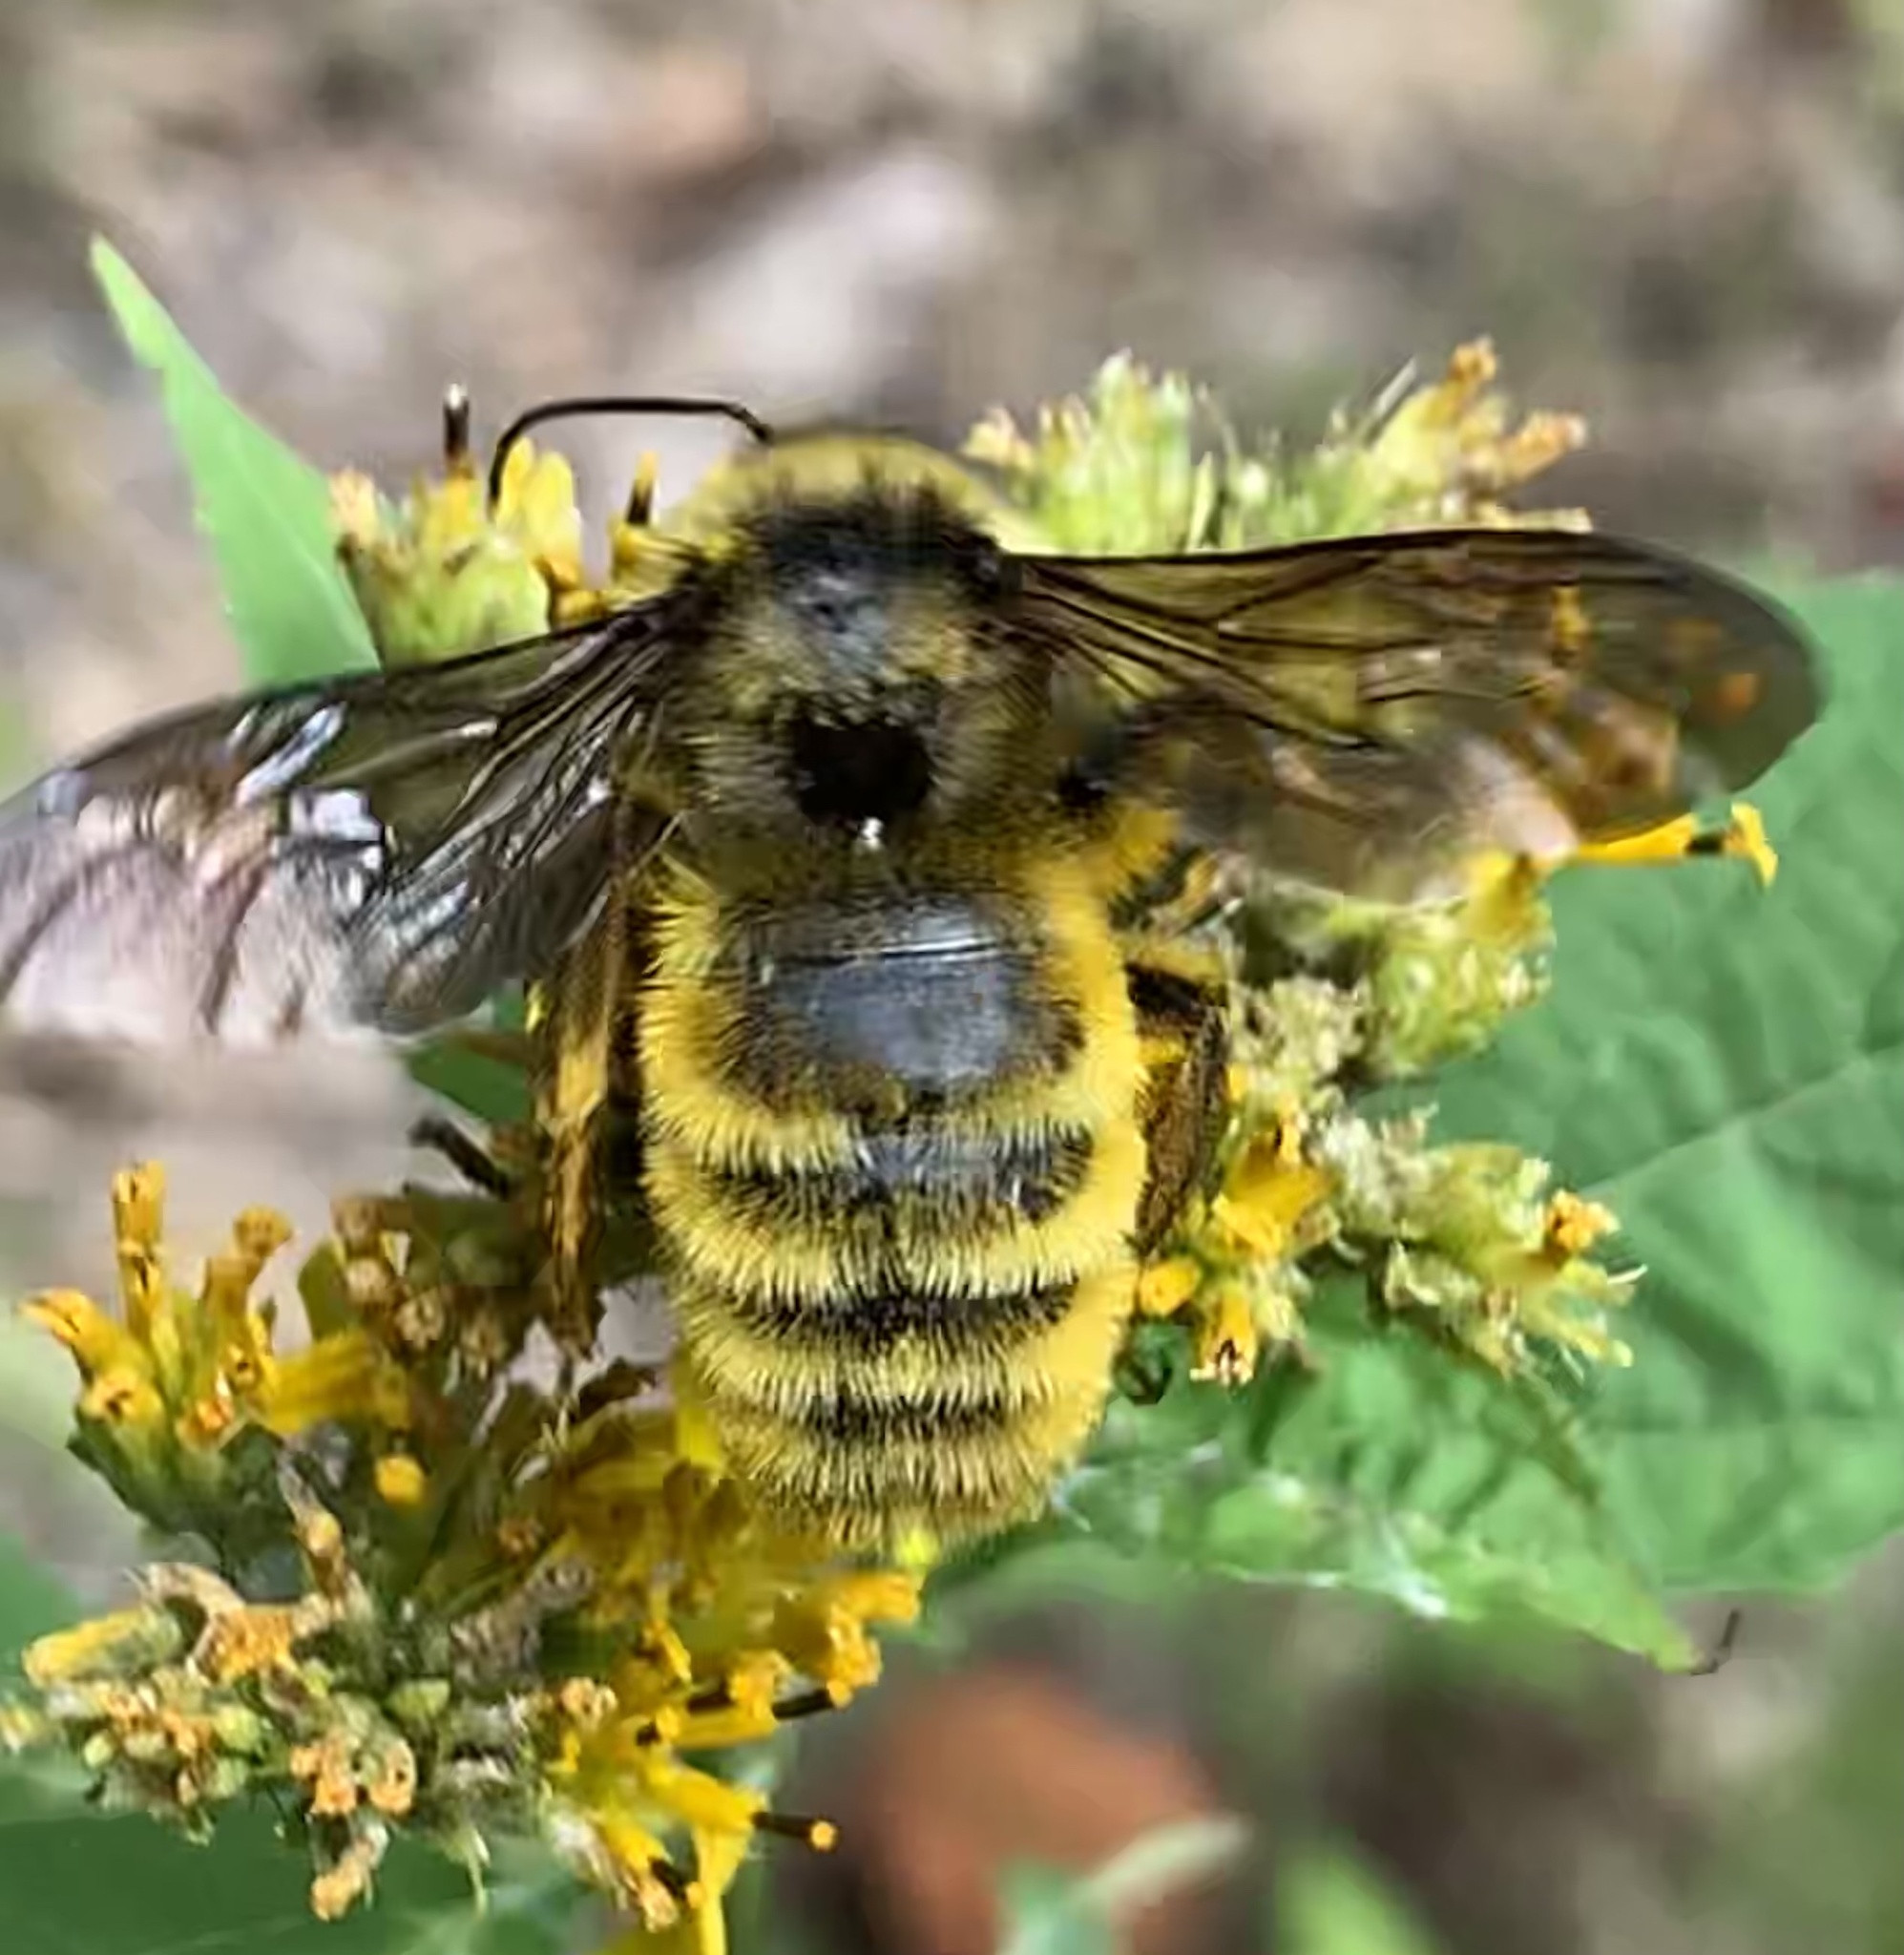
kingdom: Animalia
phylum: Arthropoda
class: Insecta
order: Hymenoptera
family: Apidae
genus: Bombus
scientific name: Bombus pensylvanicus
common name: Bumble bee
